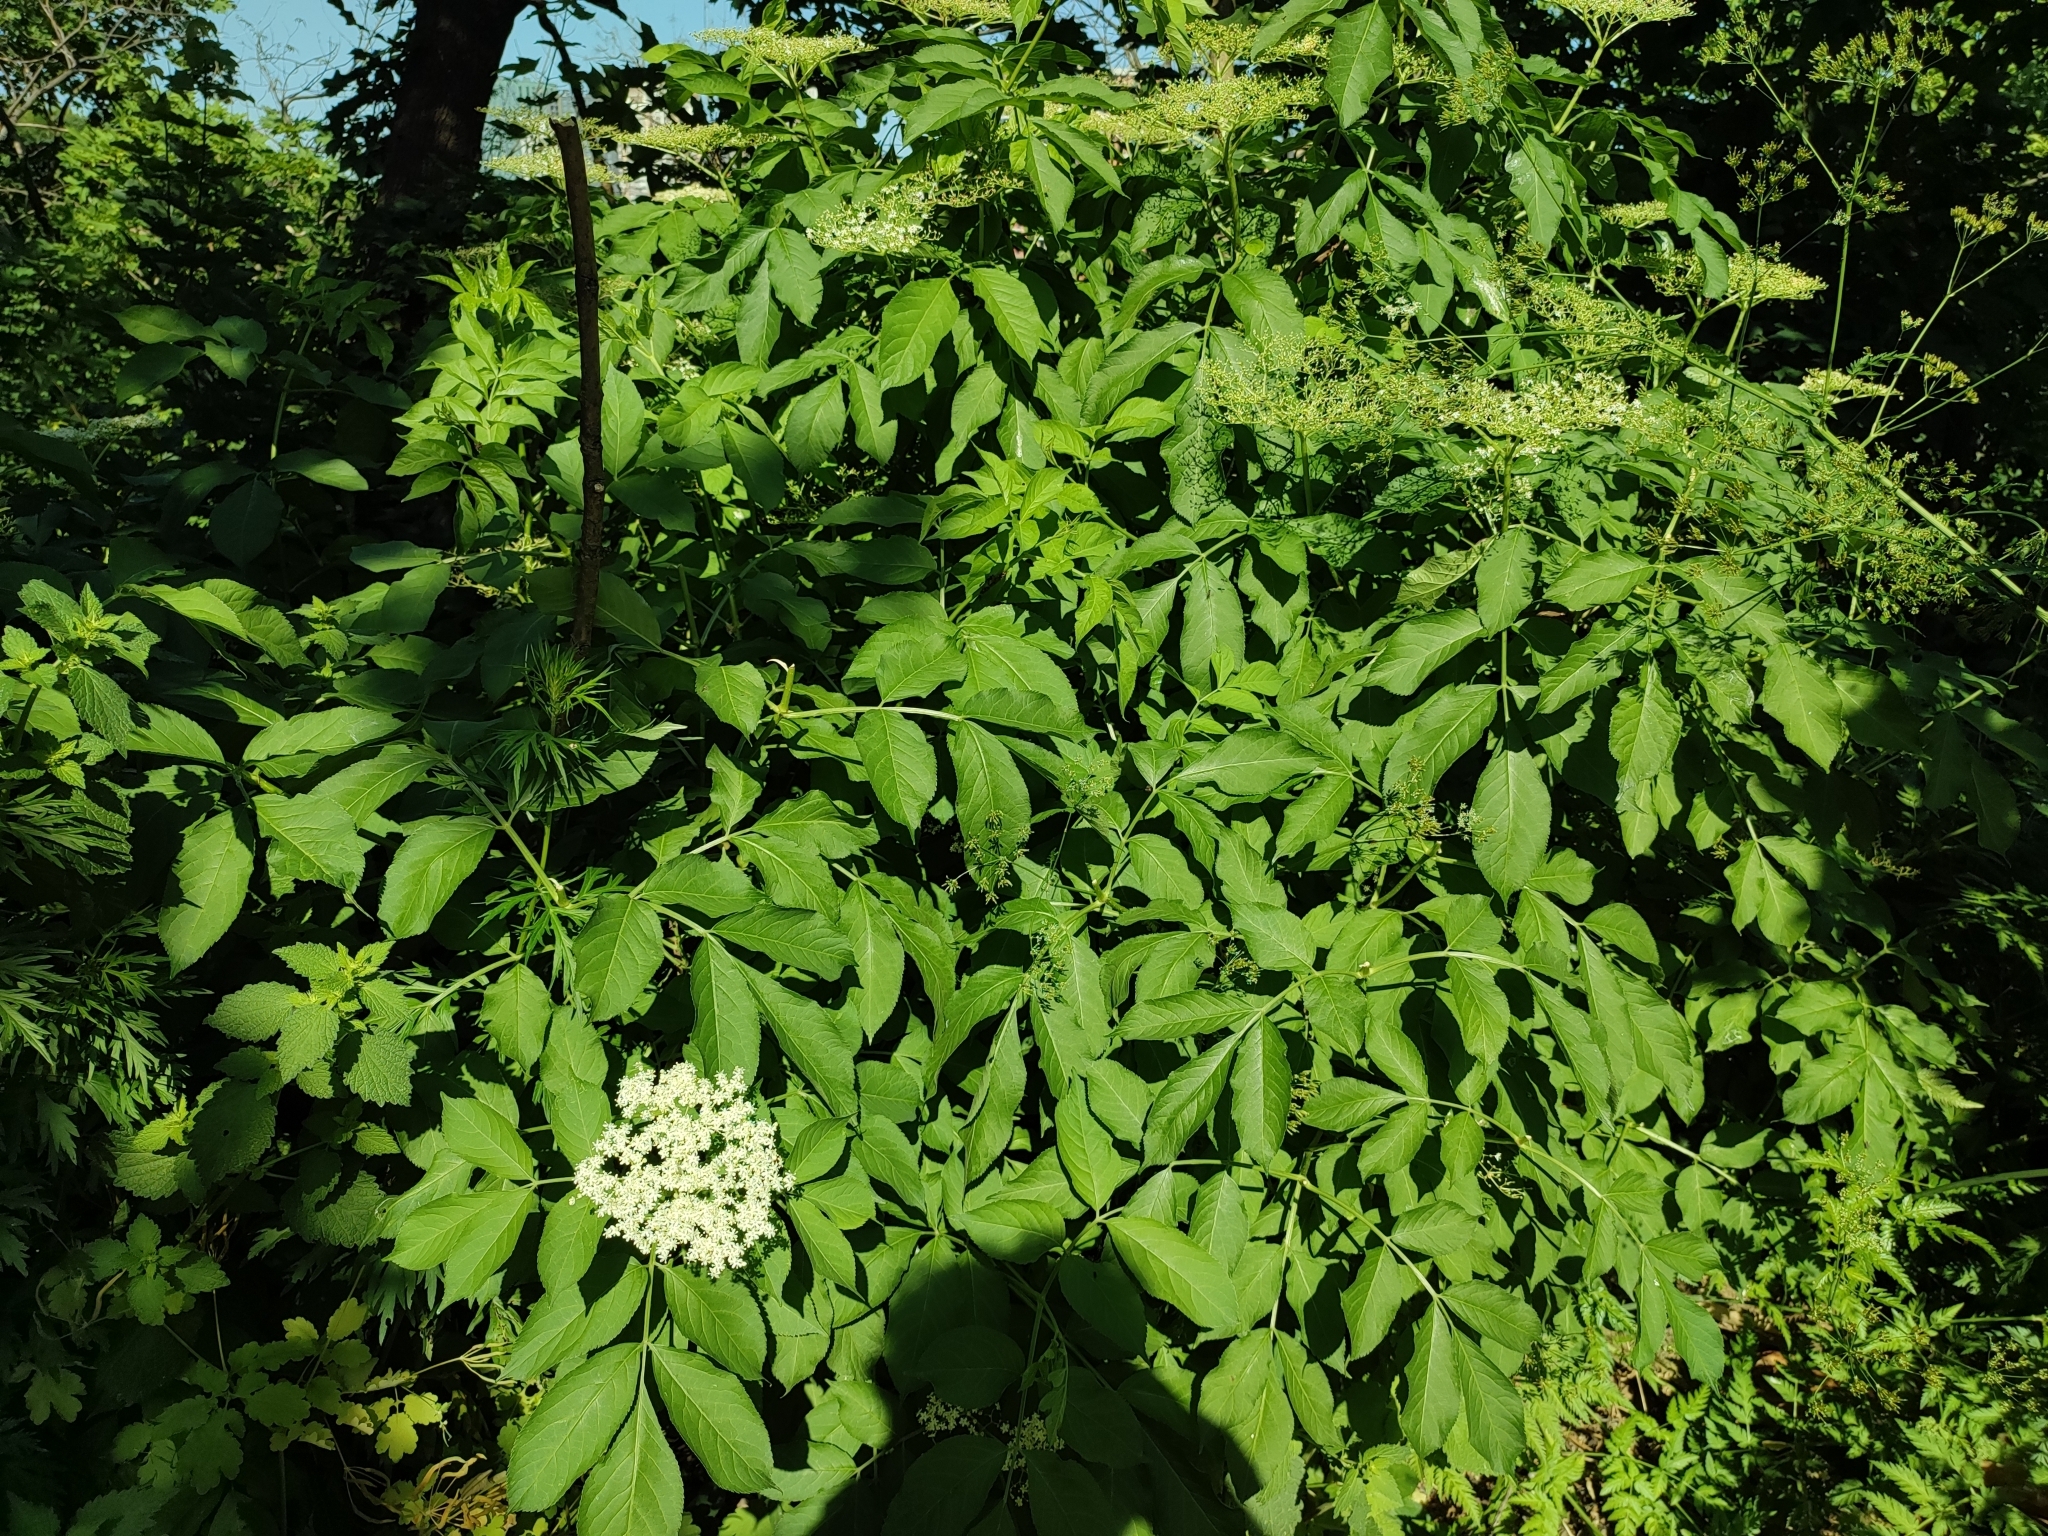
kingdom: Plantae
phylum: Tracheophyta
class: Magnoliopsida
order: Dipsacales
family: Viburnaceae
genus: Sambucus
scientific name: Sambucus nigra
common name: Elder
